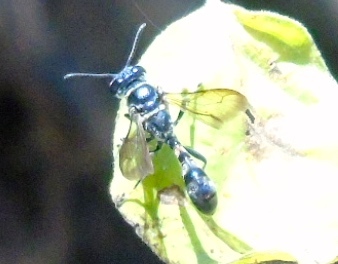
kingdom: Animalia
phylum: Arthropoda
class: Insecta
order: Hymenoptera
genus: Trypargilum
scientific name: Trypargilum
